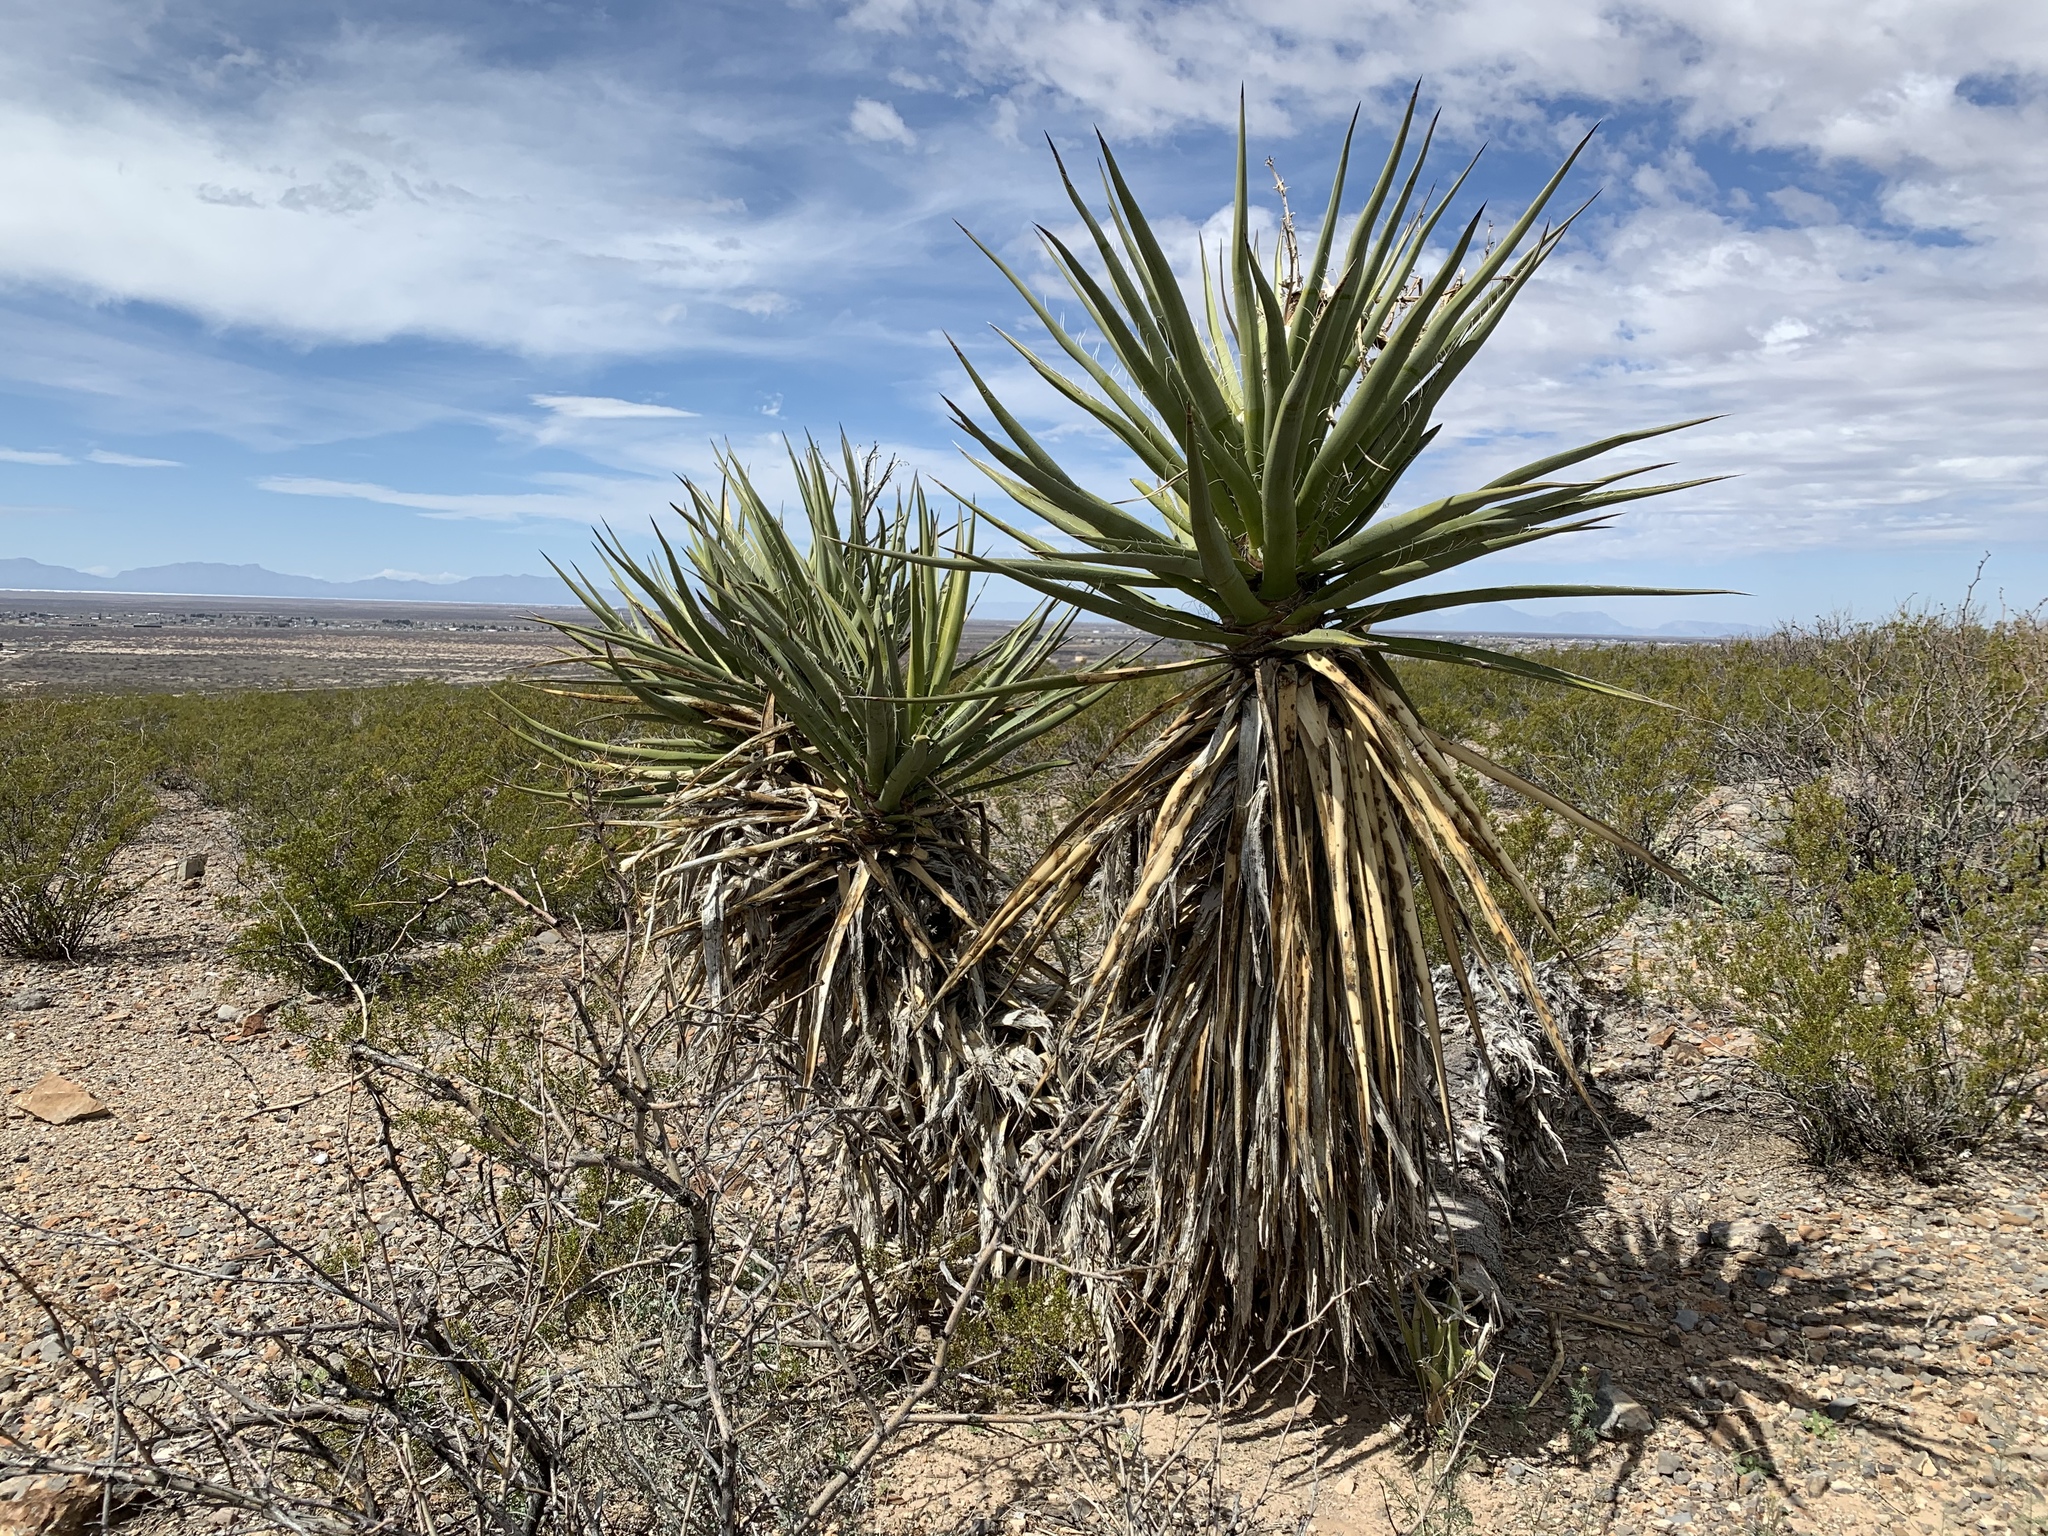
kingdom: Plantae
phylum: Tracheophyta
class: Liliopsida
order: Asparagales
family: Asparagaceae
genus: Yucca
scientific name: Yucca treculiana
